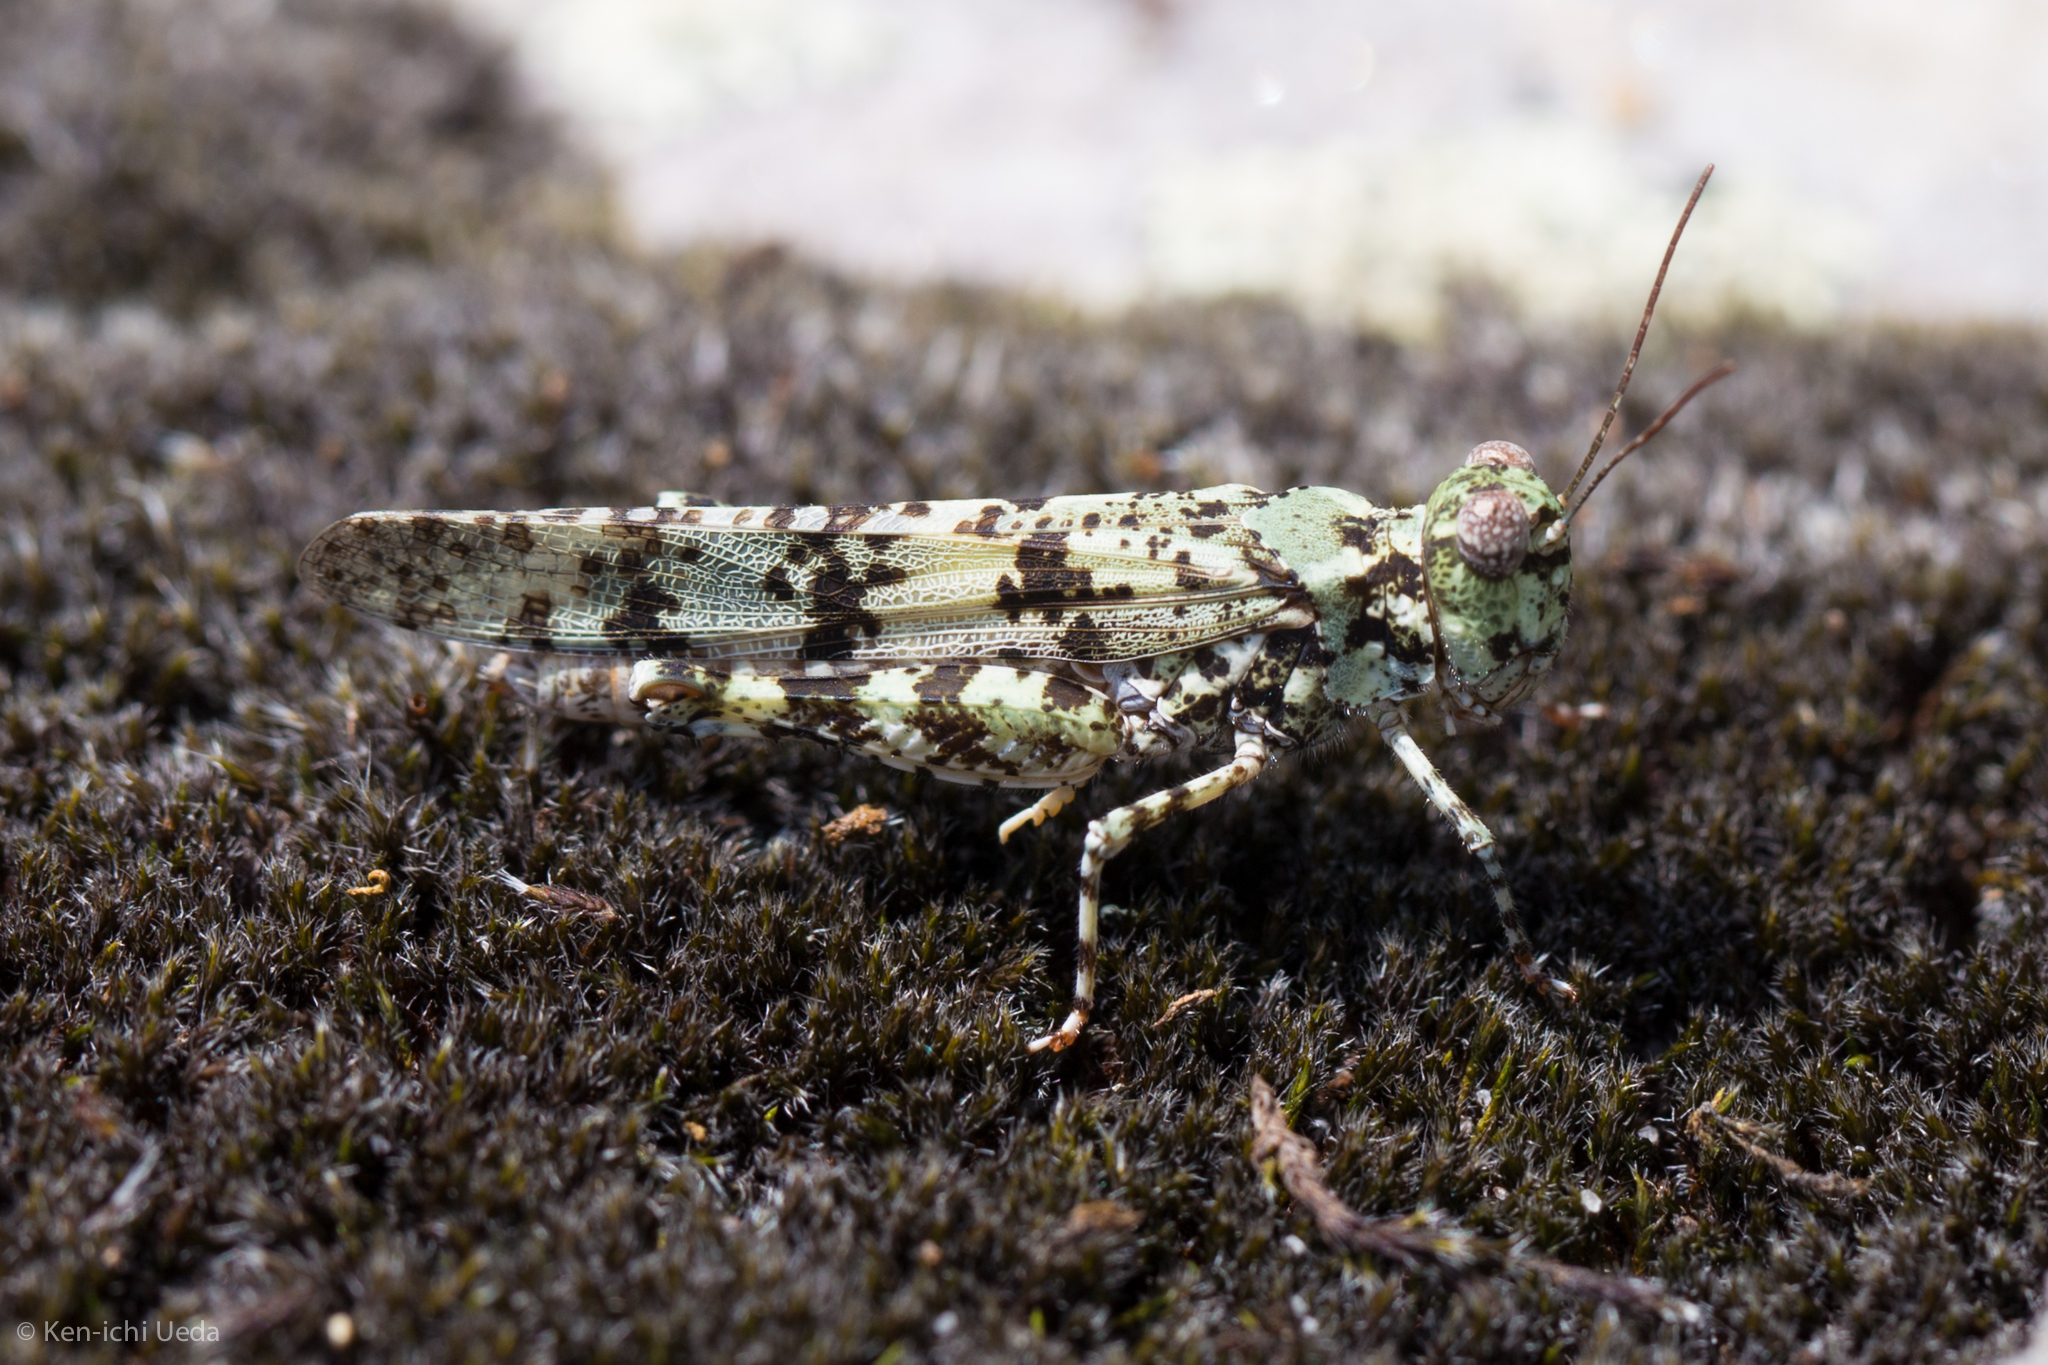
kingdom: Animalia
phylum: Arthropoda
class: Insecta
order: Orthoptera
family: Acrididae
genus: Trimerotropis
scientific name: Trimerotropis saxatilis
